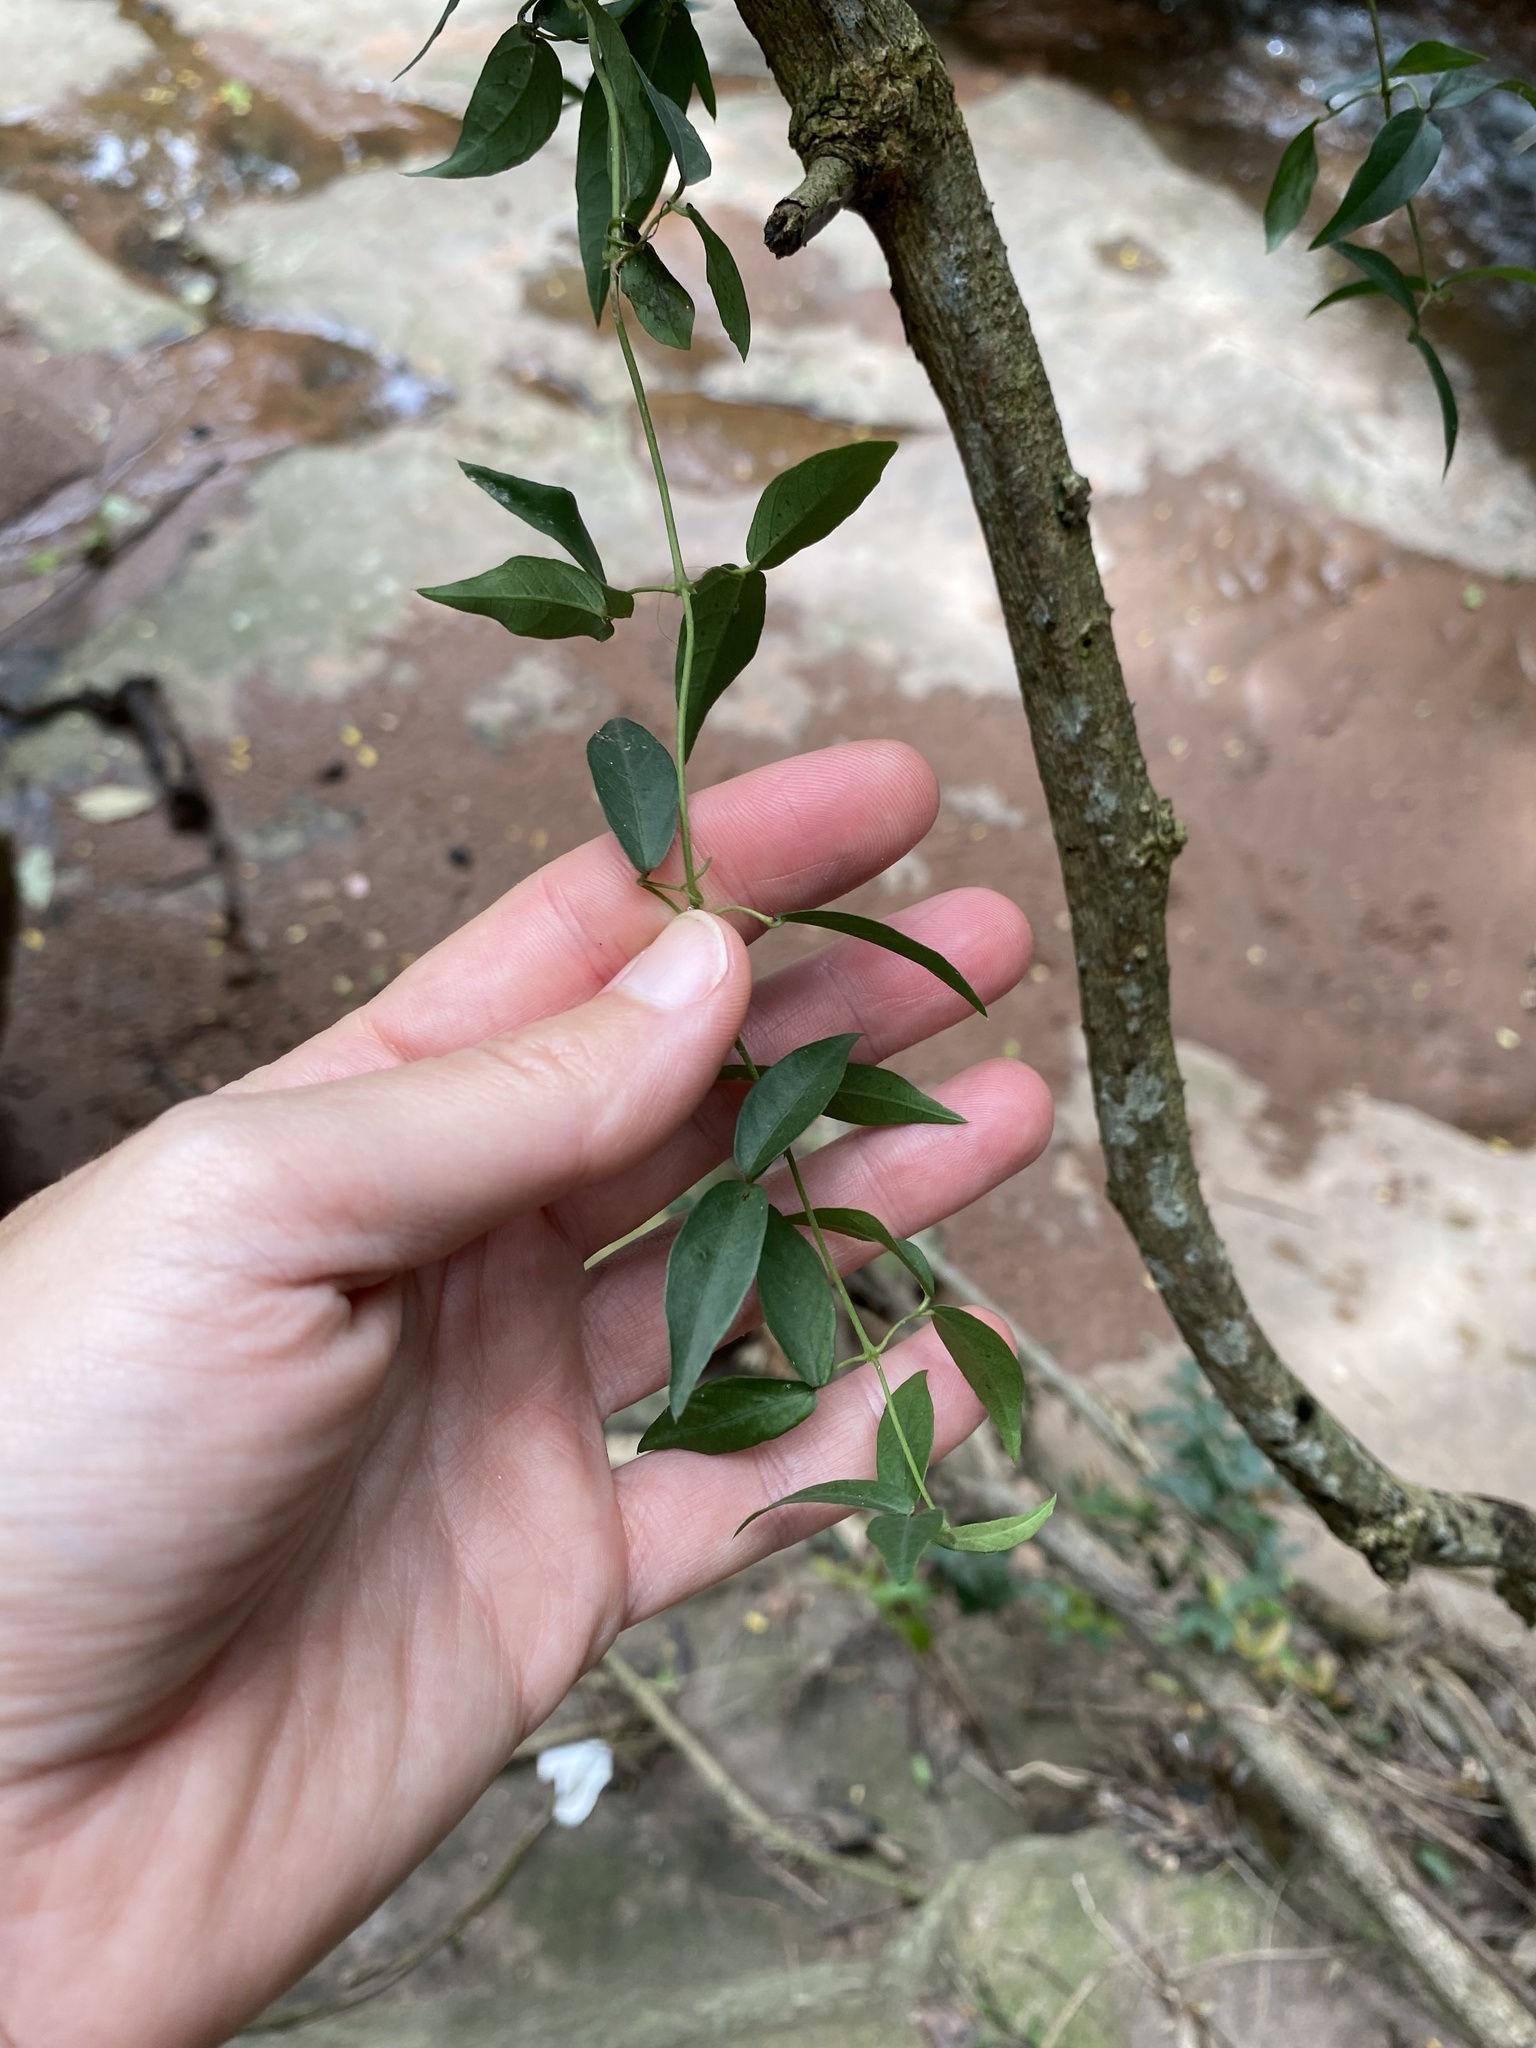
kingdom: Plantae
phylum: Tracheophyta
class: Magnoliopsida
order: Lamiales
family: Bignoniaceae
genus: Dolichandra
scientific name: Dolichandra unguis-cati
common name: Catclaw vine
